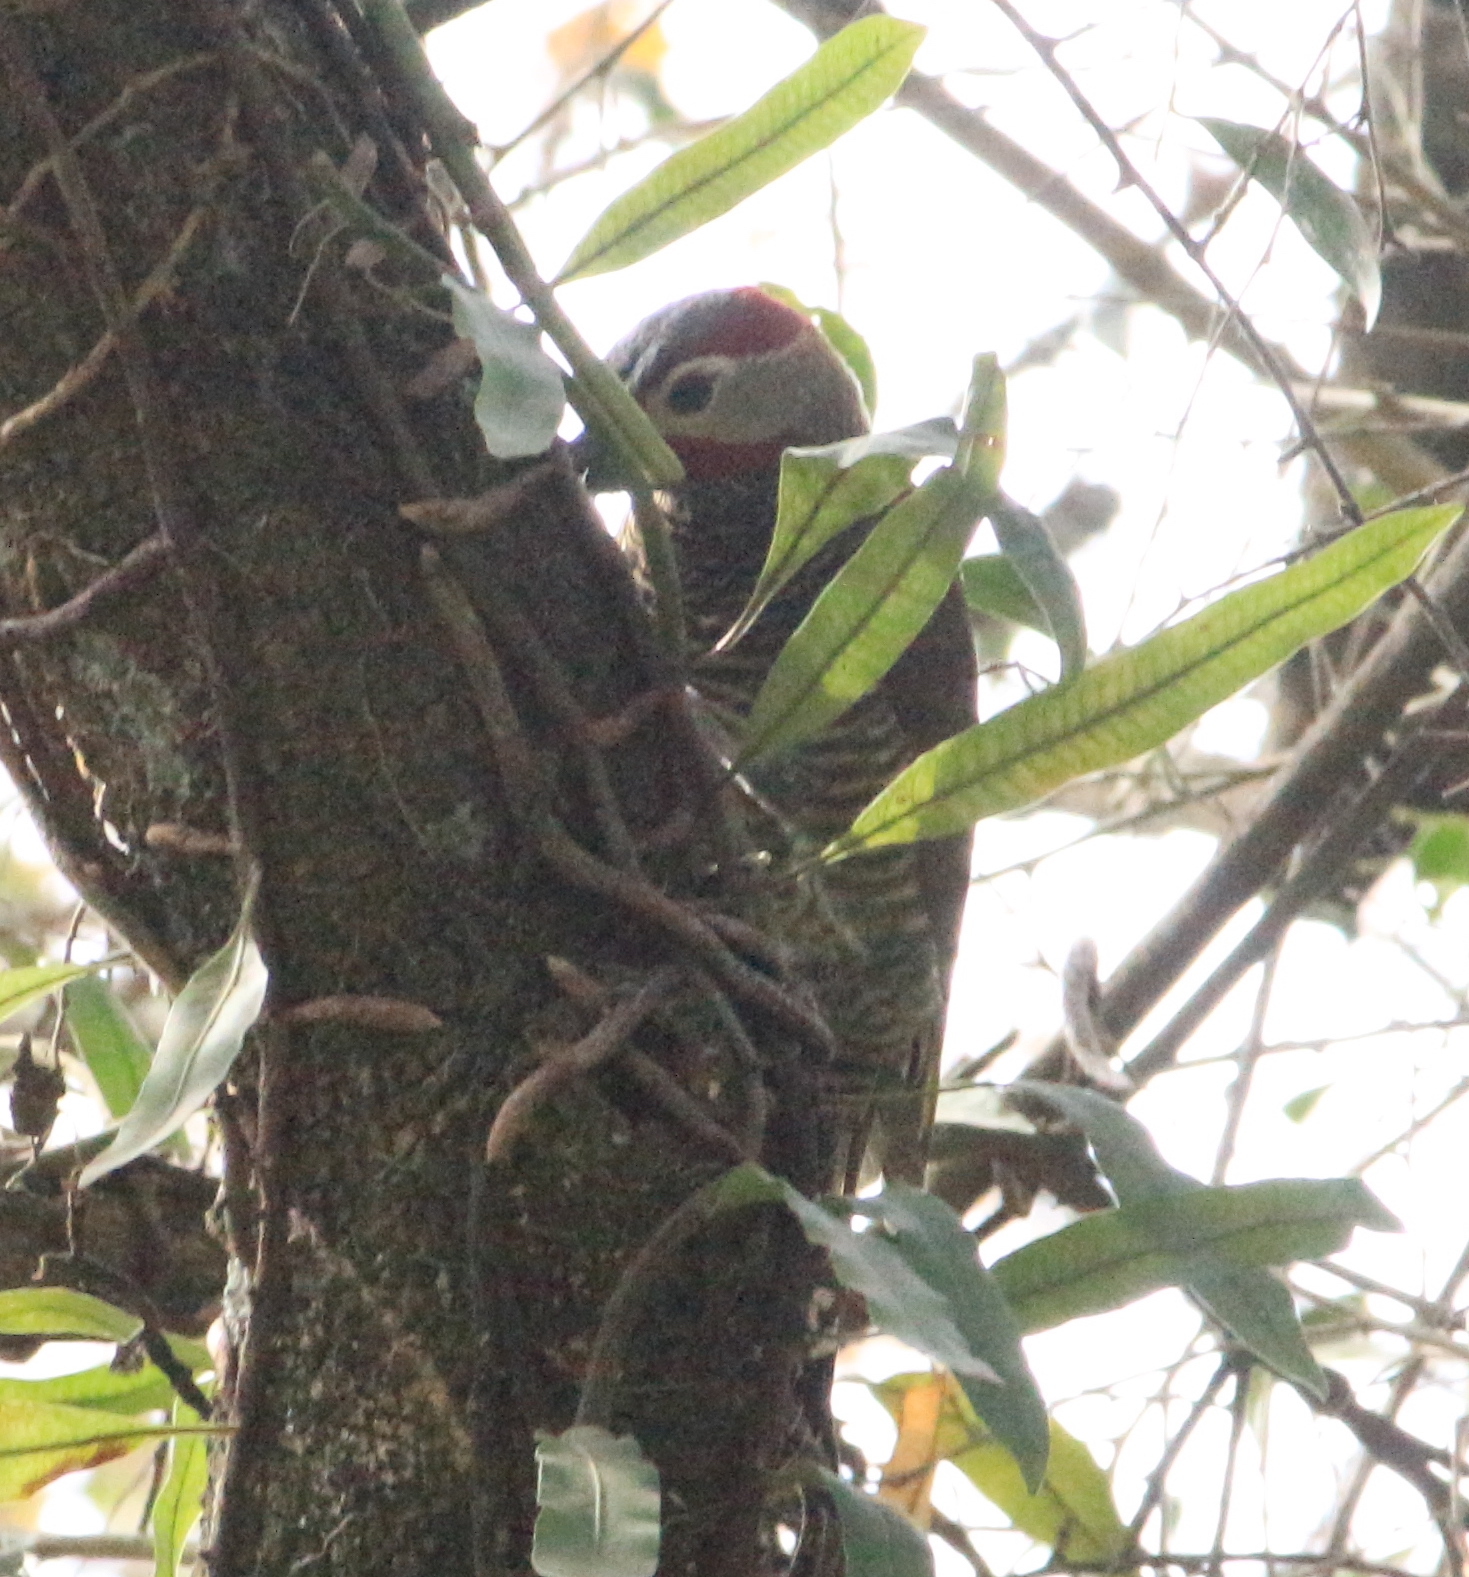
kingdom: Animalia
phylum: Chordata
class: Aves
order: Piciformes
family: Picidae
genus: Colaptes
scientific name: Colaptes rubiginosus
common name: Golden-olive woodpecker
